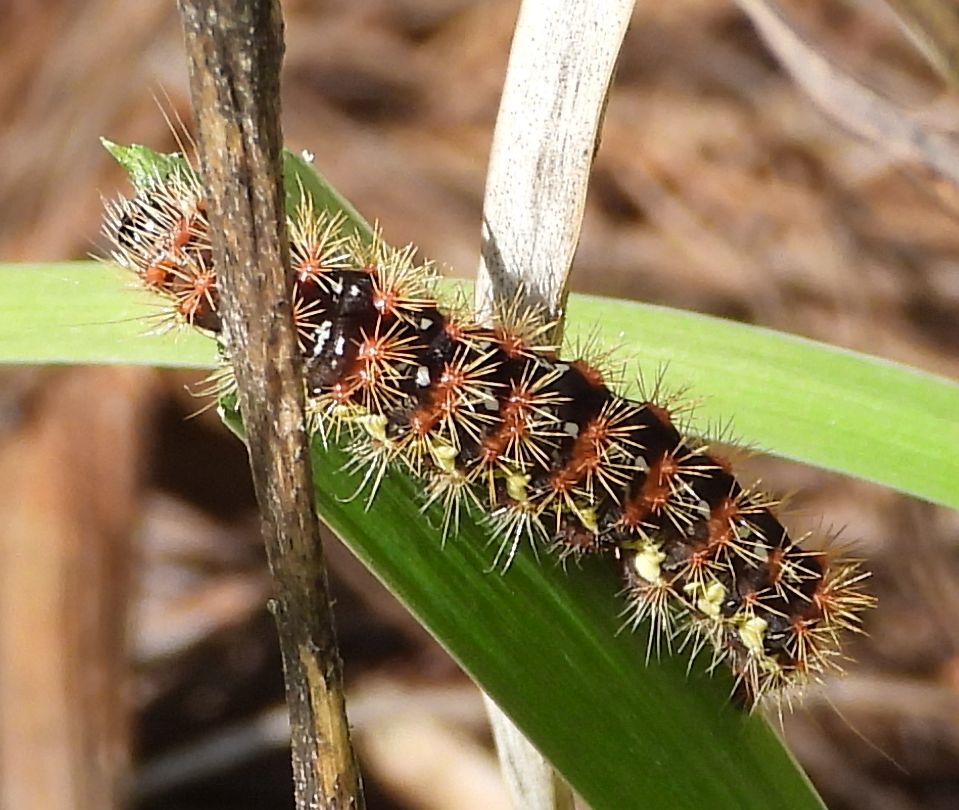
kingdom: Animalia
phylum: Arthropoda
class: Insecta
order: Lepidoptera
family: Noctuidae
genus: Acronicta
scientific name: Acronicta oblinita
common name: Smeared dagger
